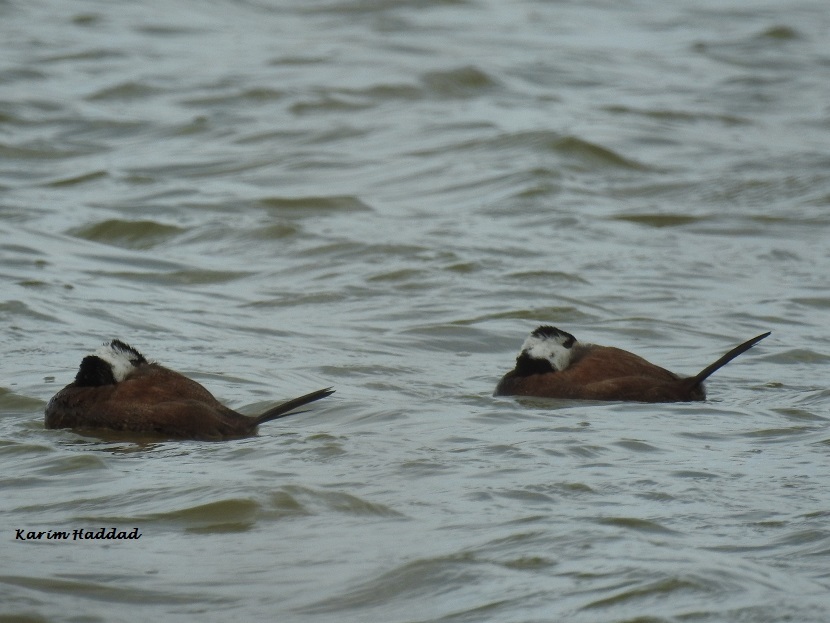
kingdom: Animalia
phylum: Chordata
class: Aves
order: Anseriformes
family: Anatidae
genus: Oxyura
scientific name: Oxyura leucocephala
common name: White-headed duck
